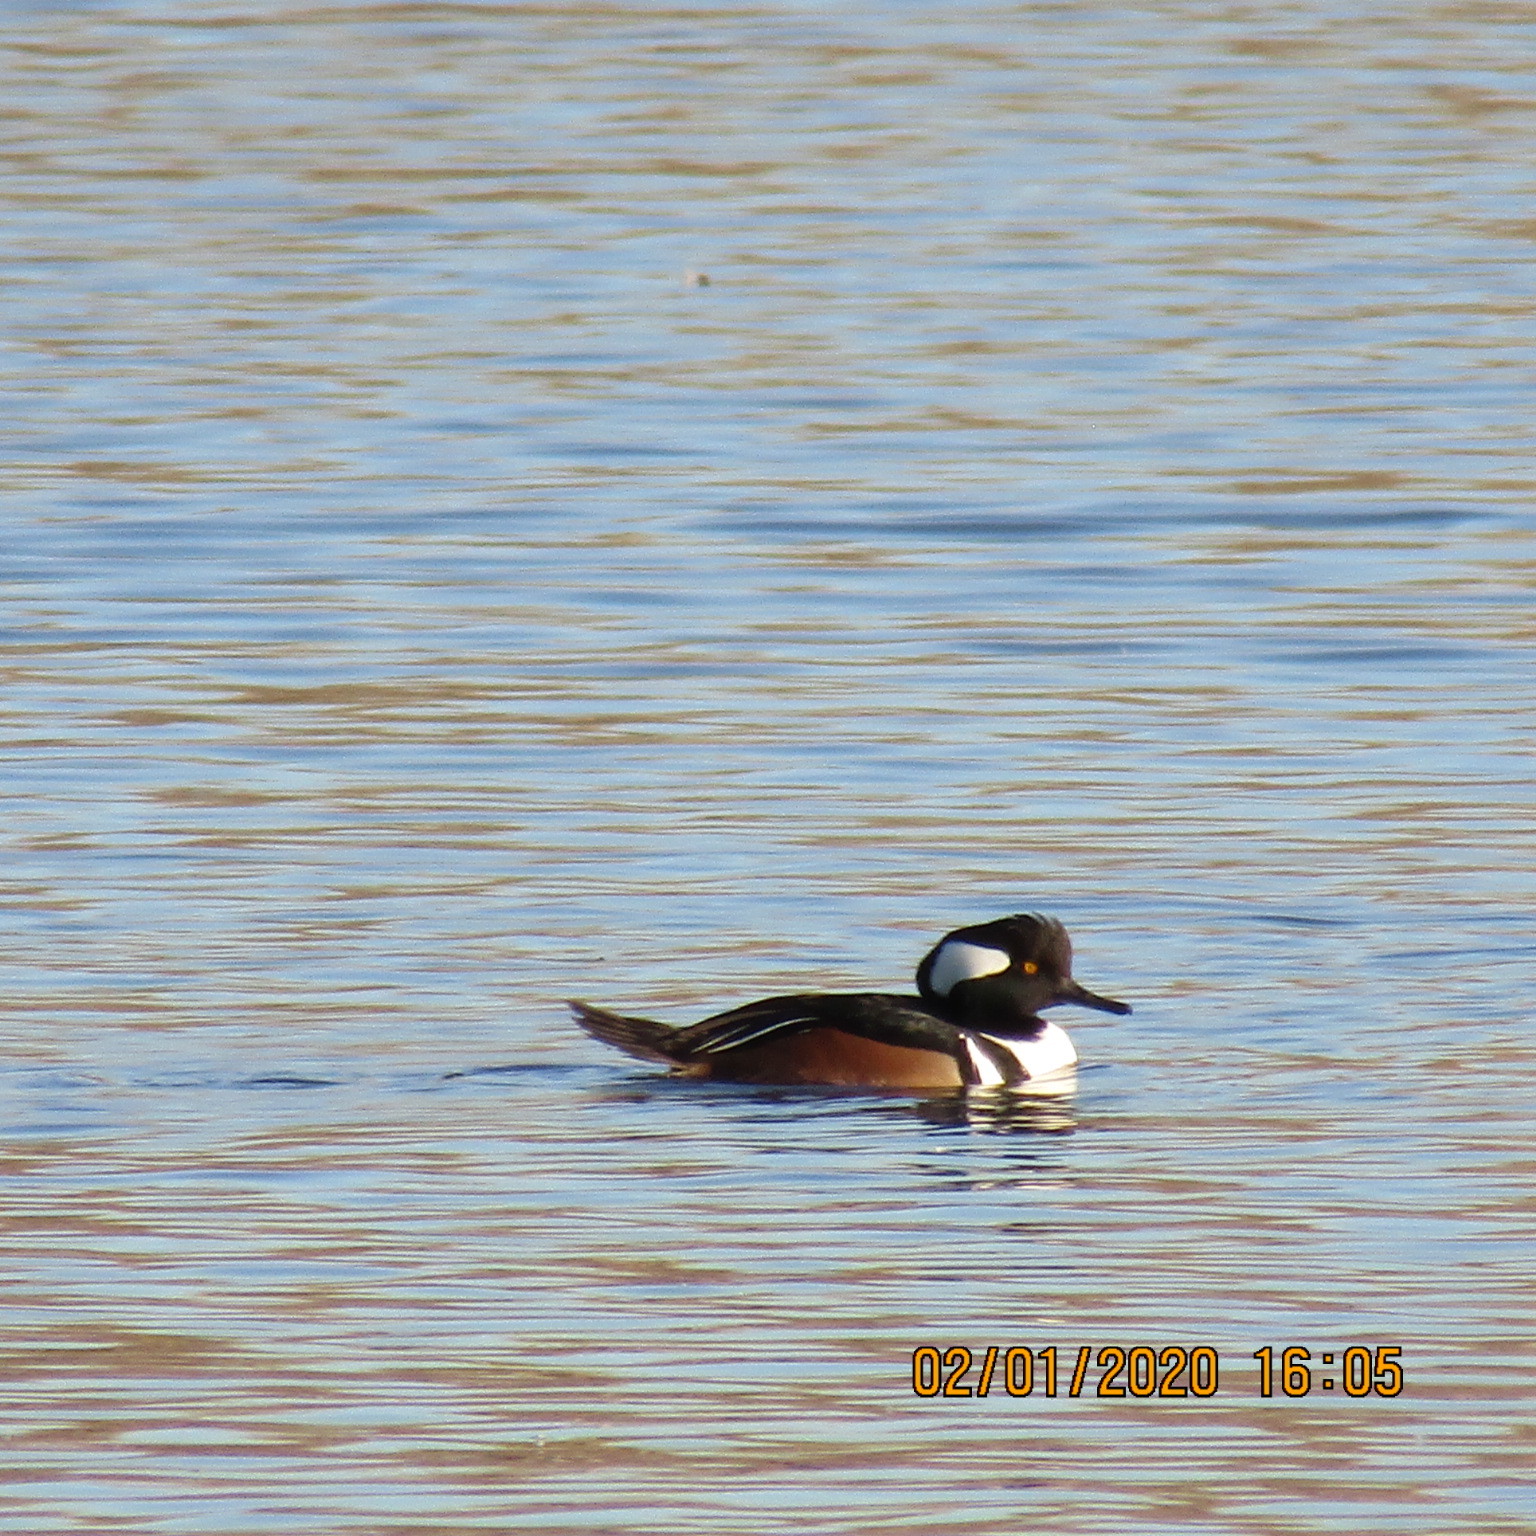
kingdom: Animalia
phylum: Chordata
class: Aves
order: Anseriformes
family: Anatidae
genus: Lophodytes
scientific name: Lophodytes cucullatus
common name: Hooded merganser
